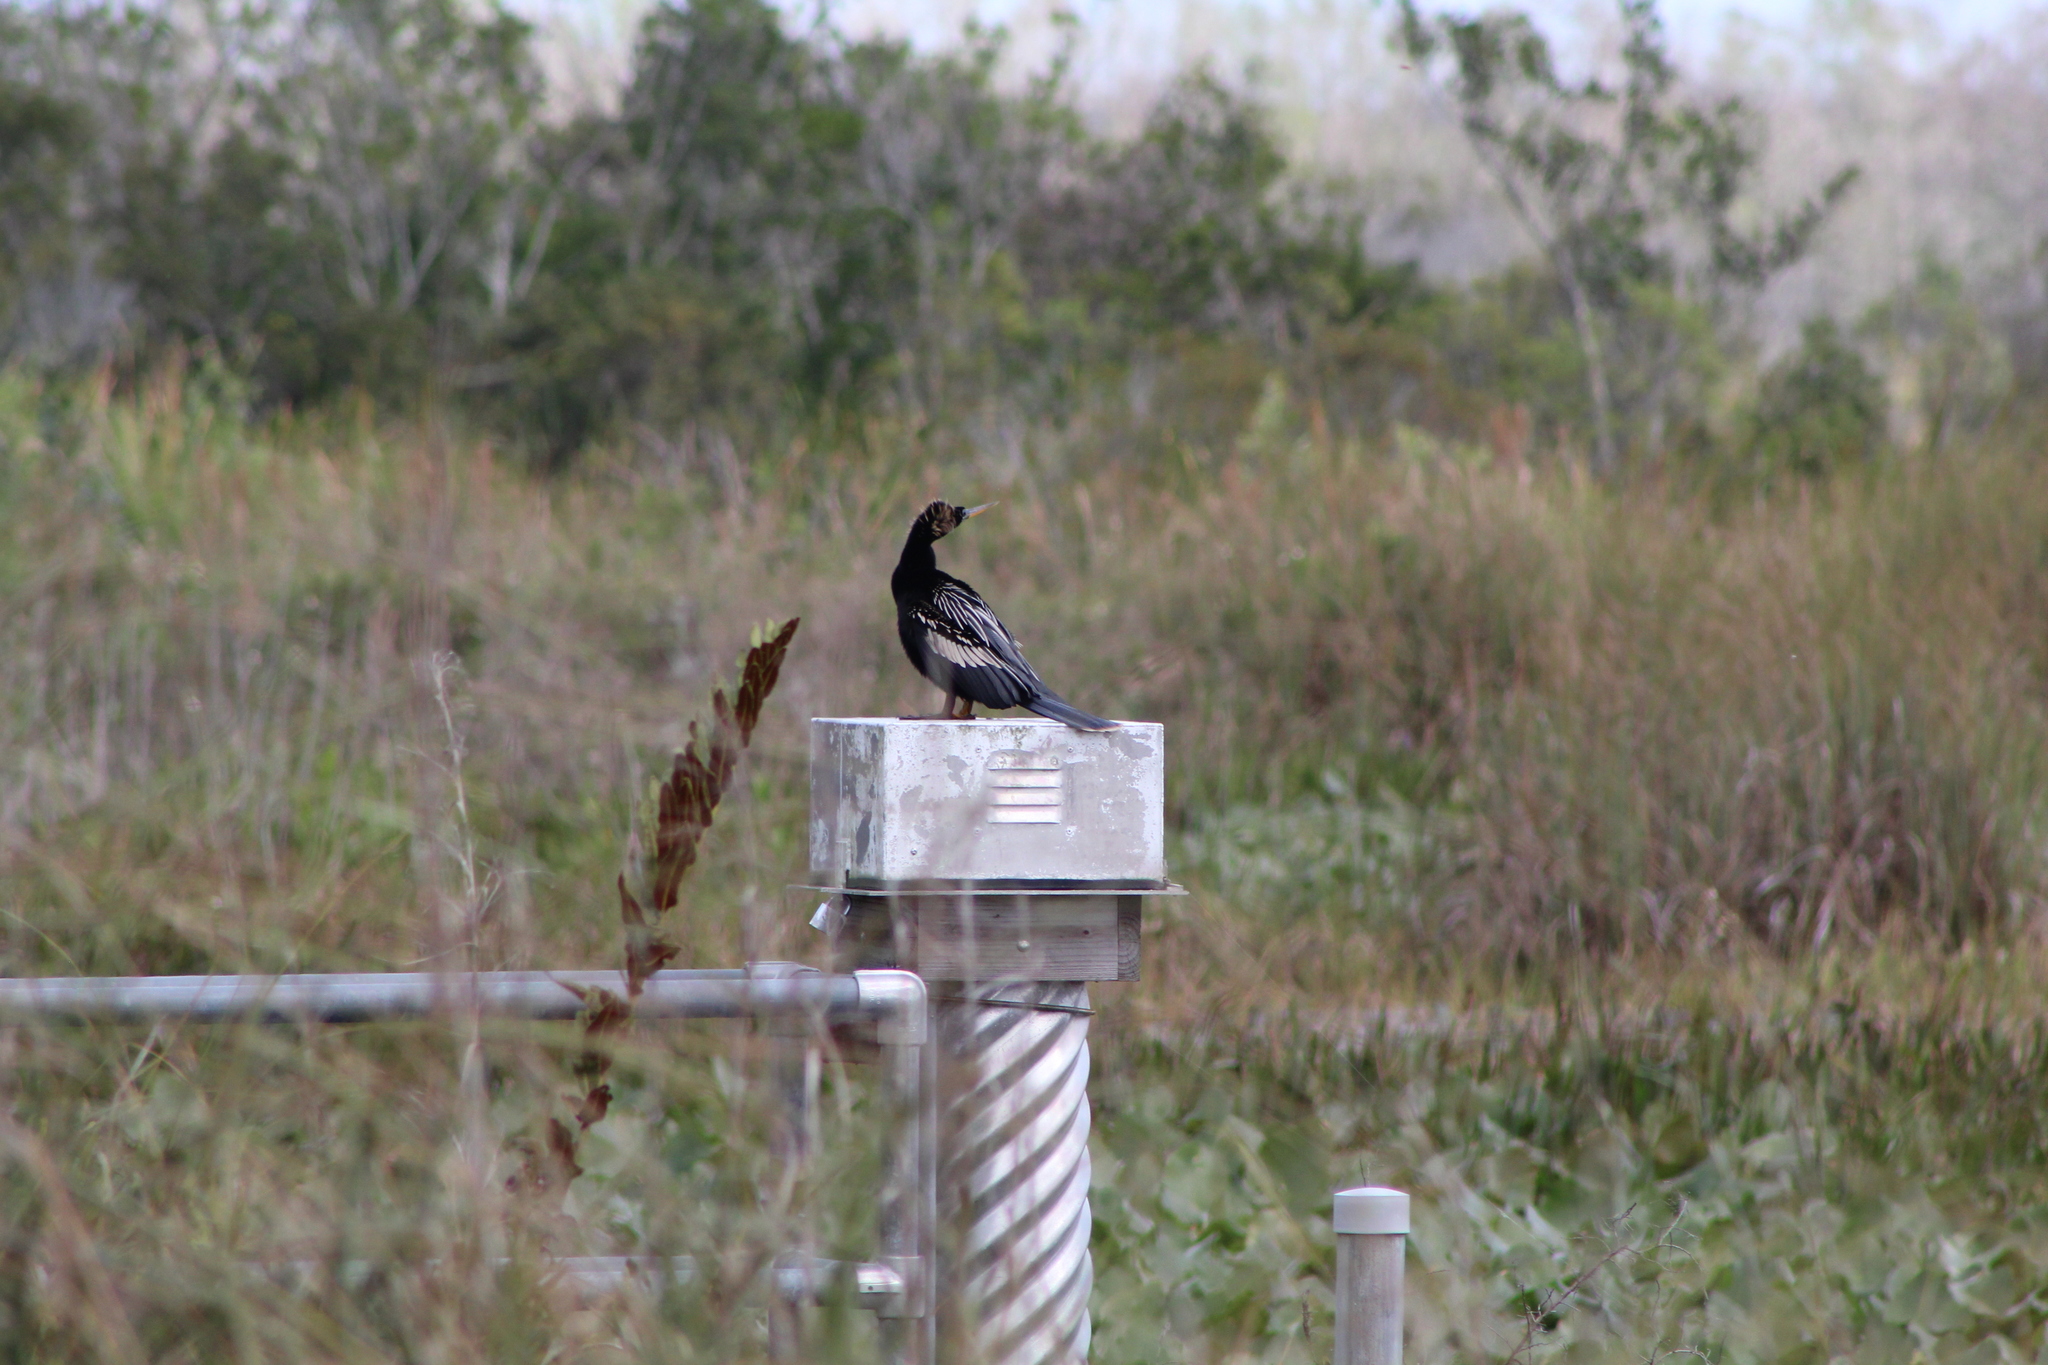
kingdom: Animalia
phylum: Chordata
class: Aves
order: Suliformes
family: Anhingidae
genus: Anhinga
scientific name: Anhinga anhinga
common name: Anhinga
